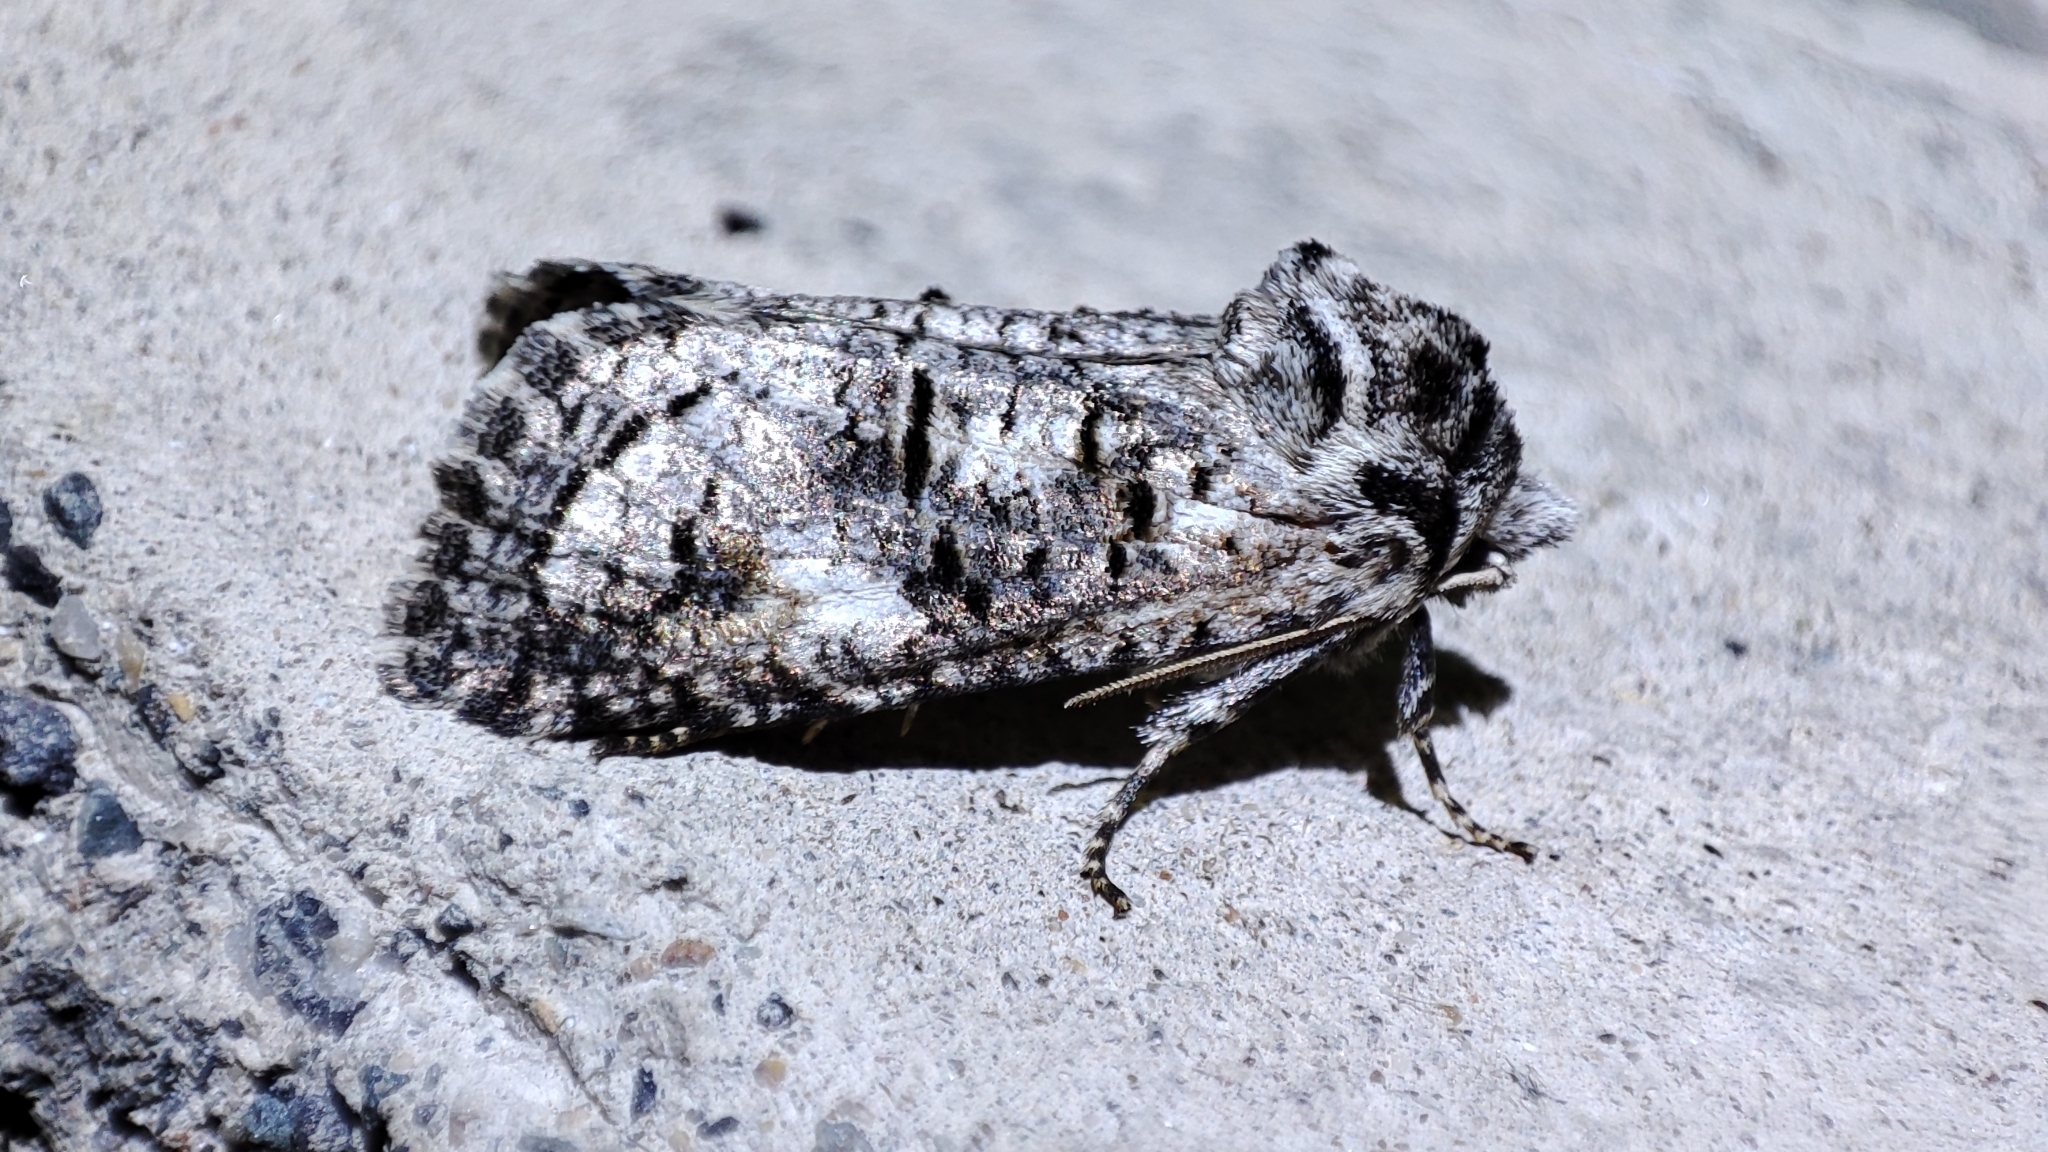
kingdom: Animalia
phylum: Arthropoda
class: Insecta
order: Lepidoptera
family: Cossidae
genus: Catopta
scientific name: Catopta perunovi
